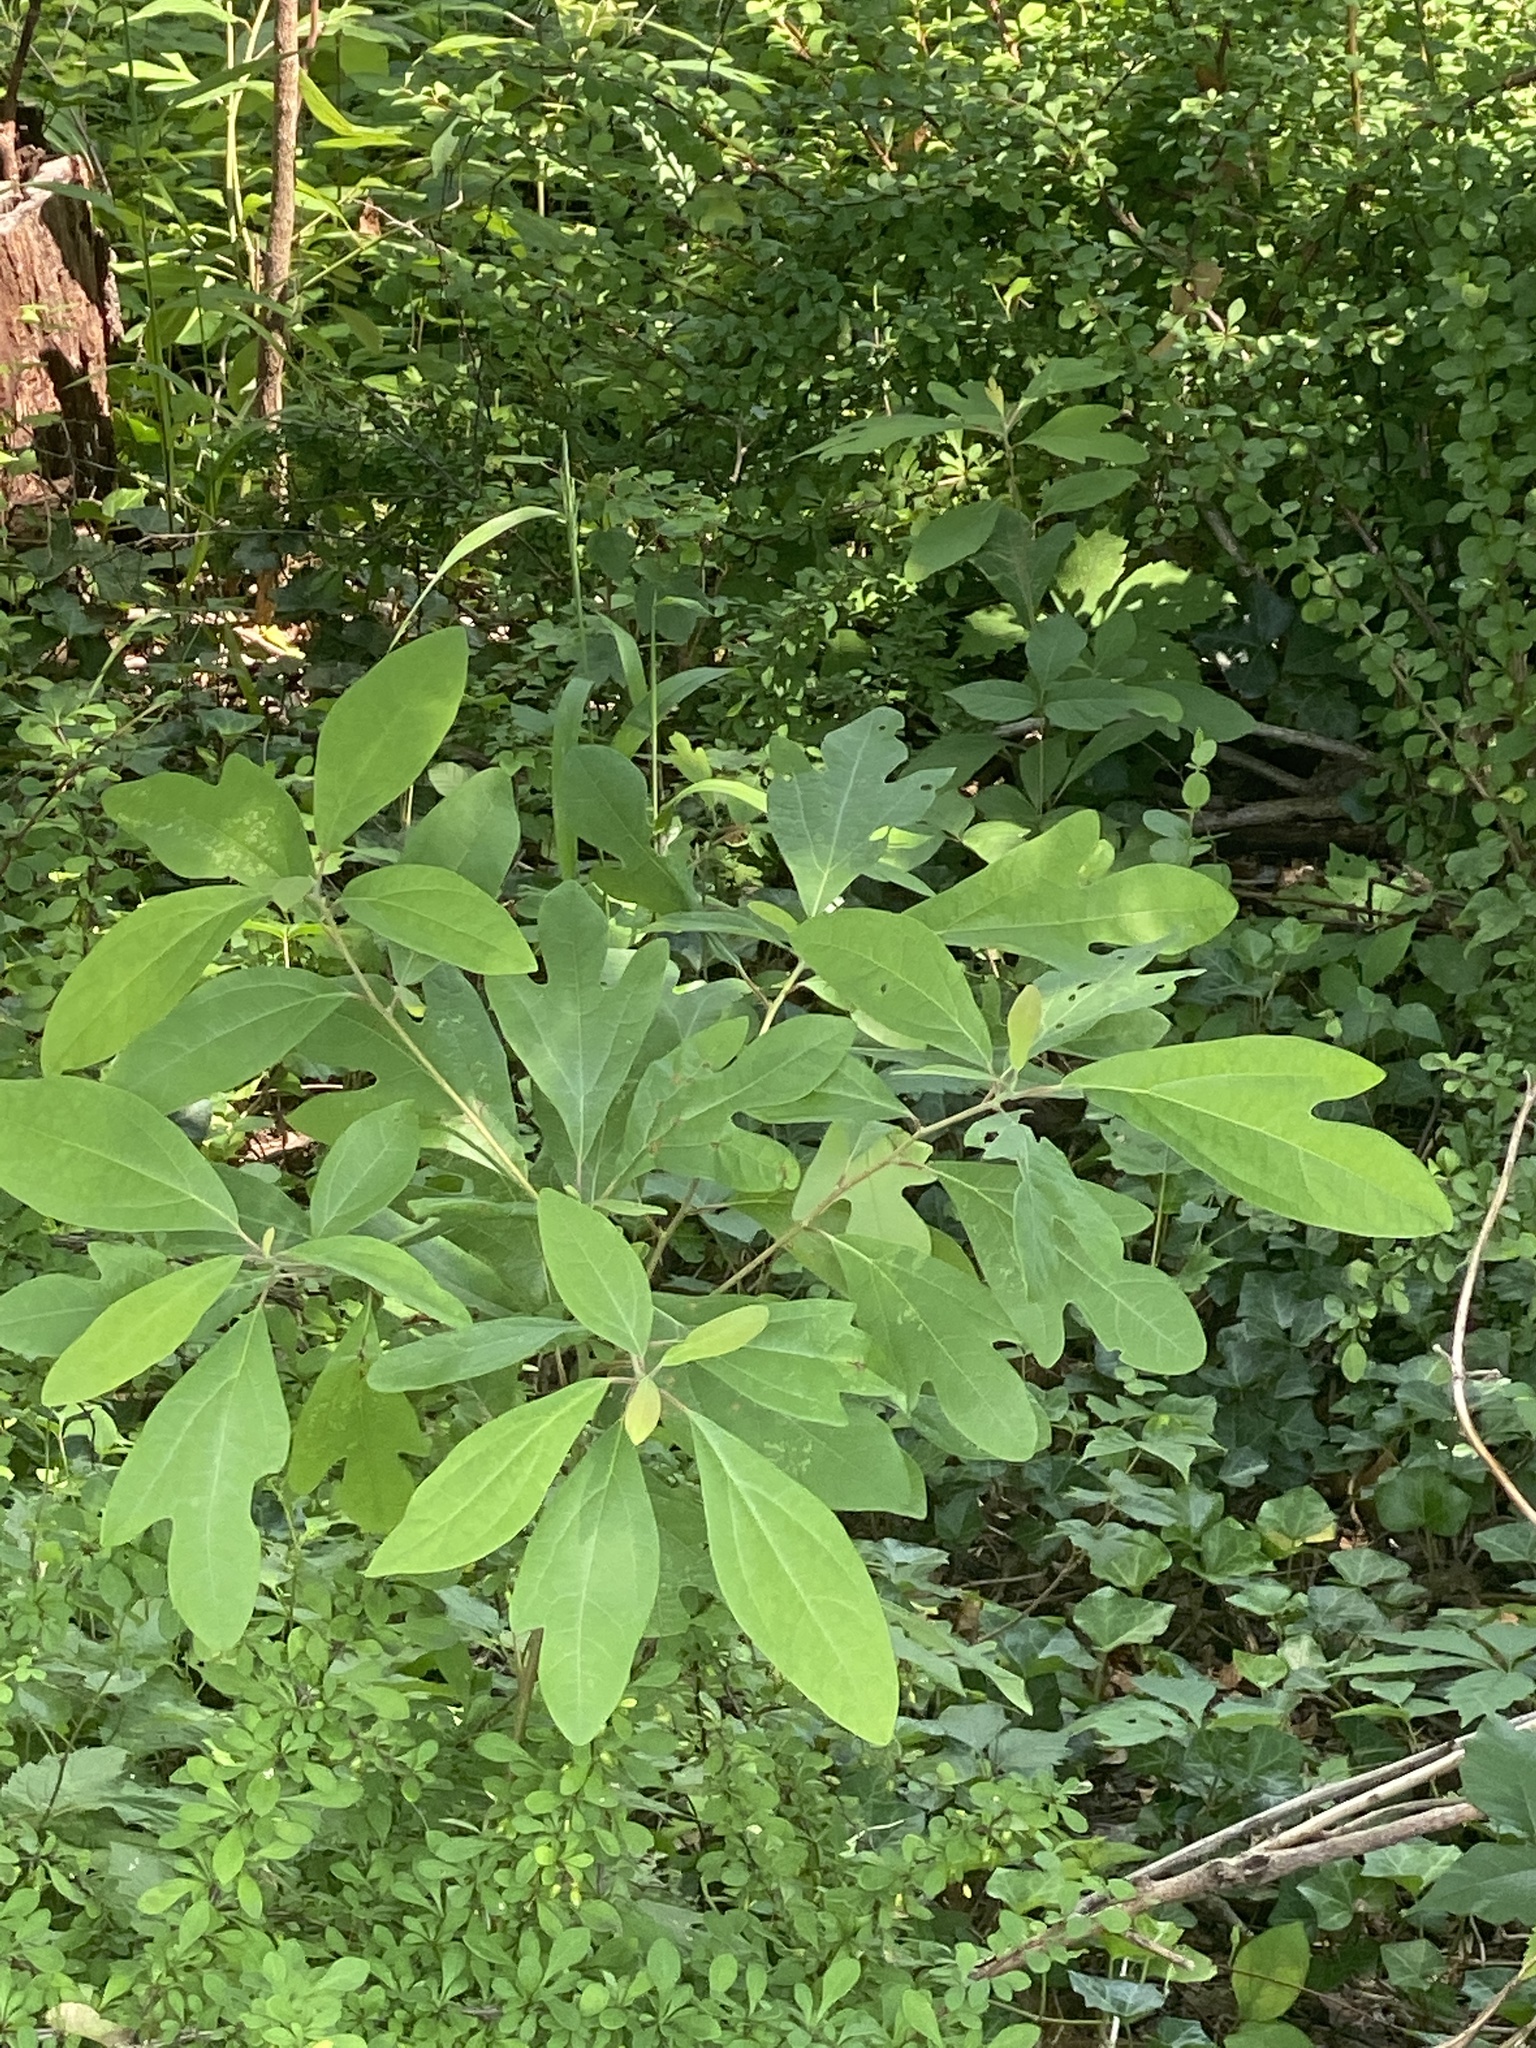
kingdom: Plantae
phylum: Tracheophyta
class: Magnoliopsida
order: Laurales
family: Lauraceae
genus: Sassafras
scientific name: Sassafras albidum
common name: Sassafras
